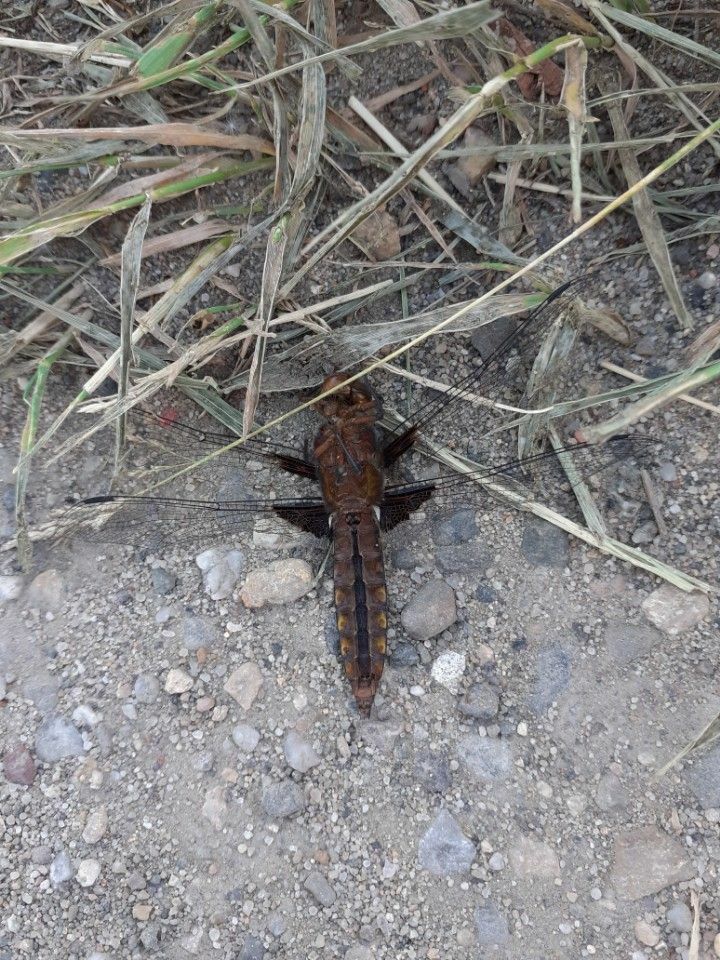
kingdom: Animalia
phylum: Arthropoda
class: Insecta
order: Odonata
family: Libellulidae
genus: Libellula
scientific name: Libellula depressa
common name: Broad-bodied chaser
